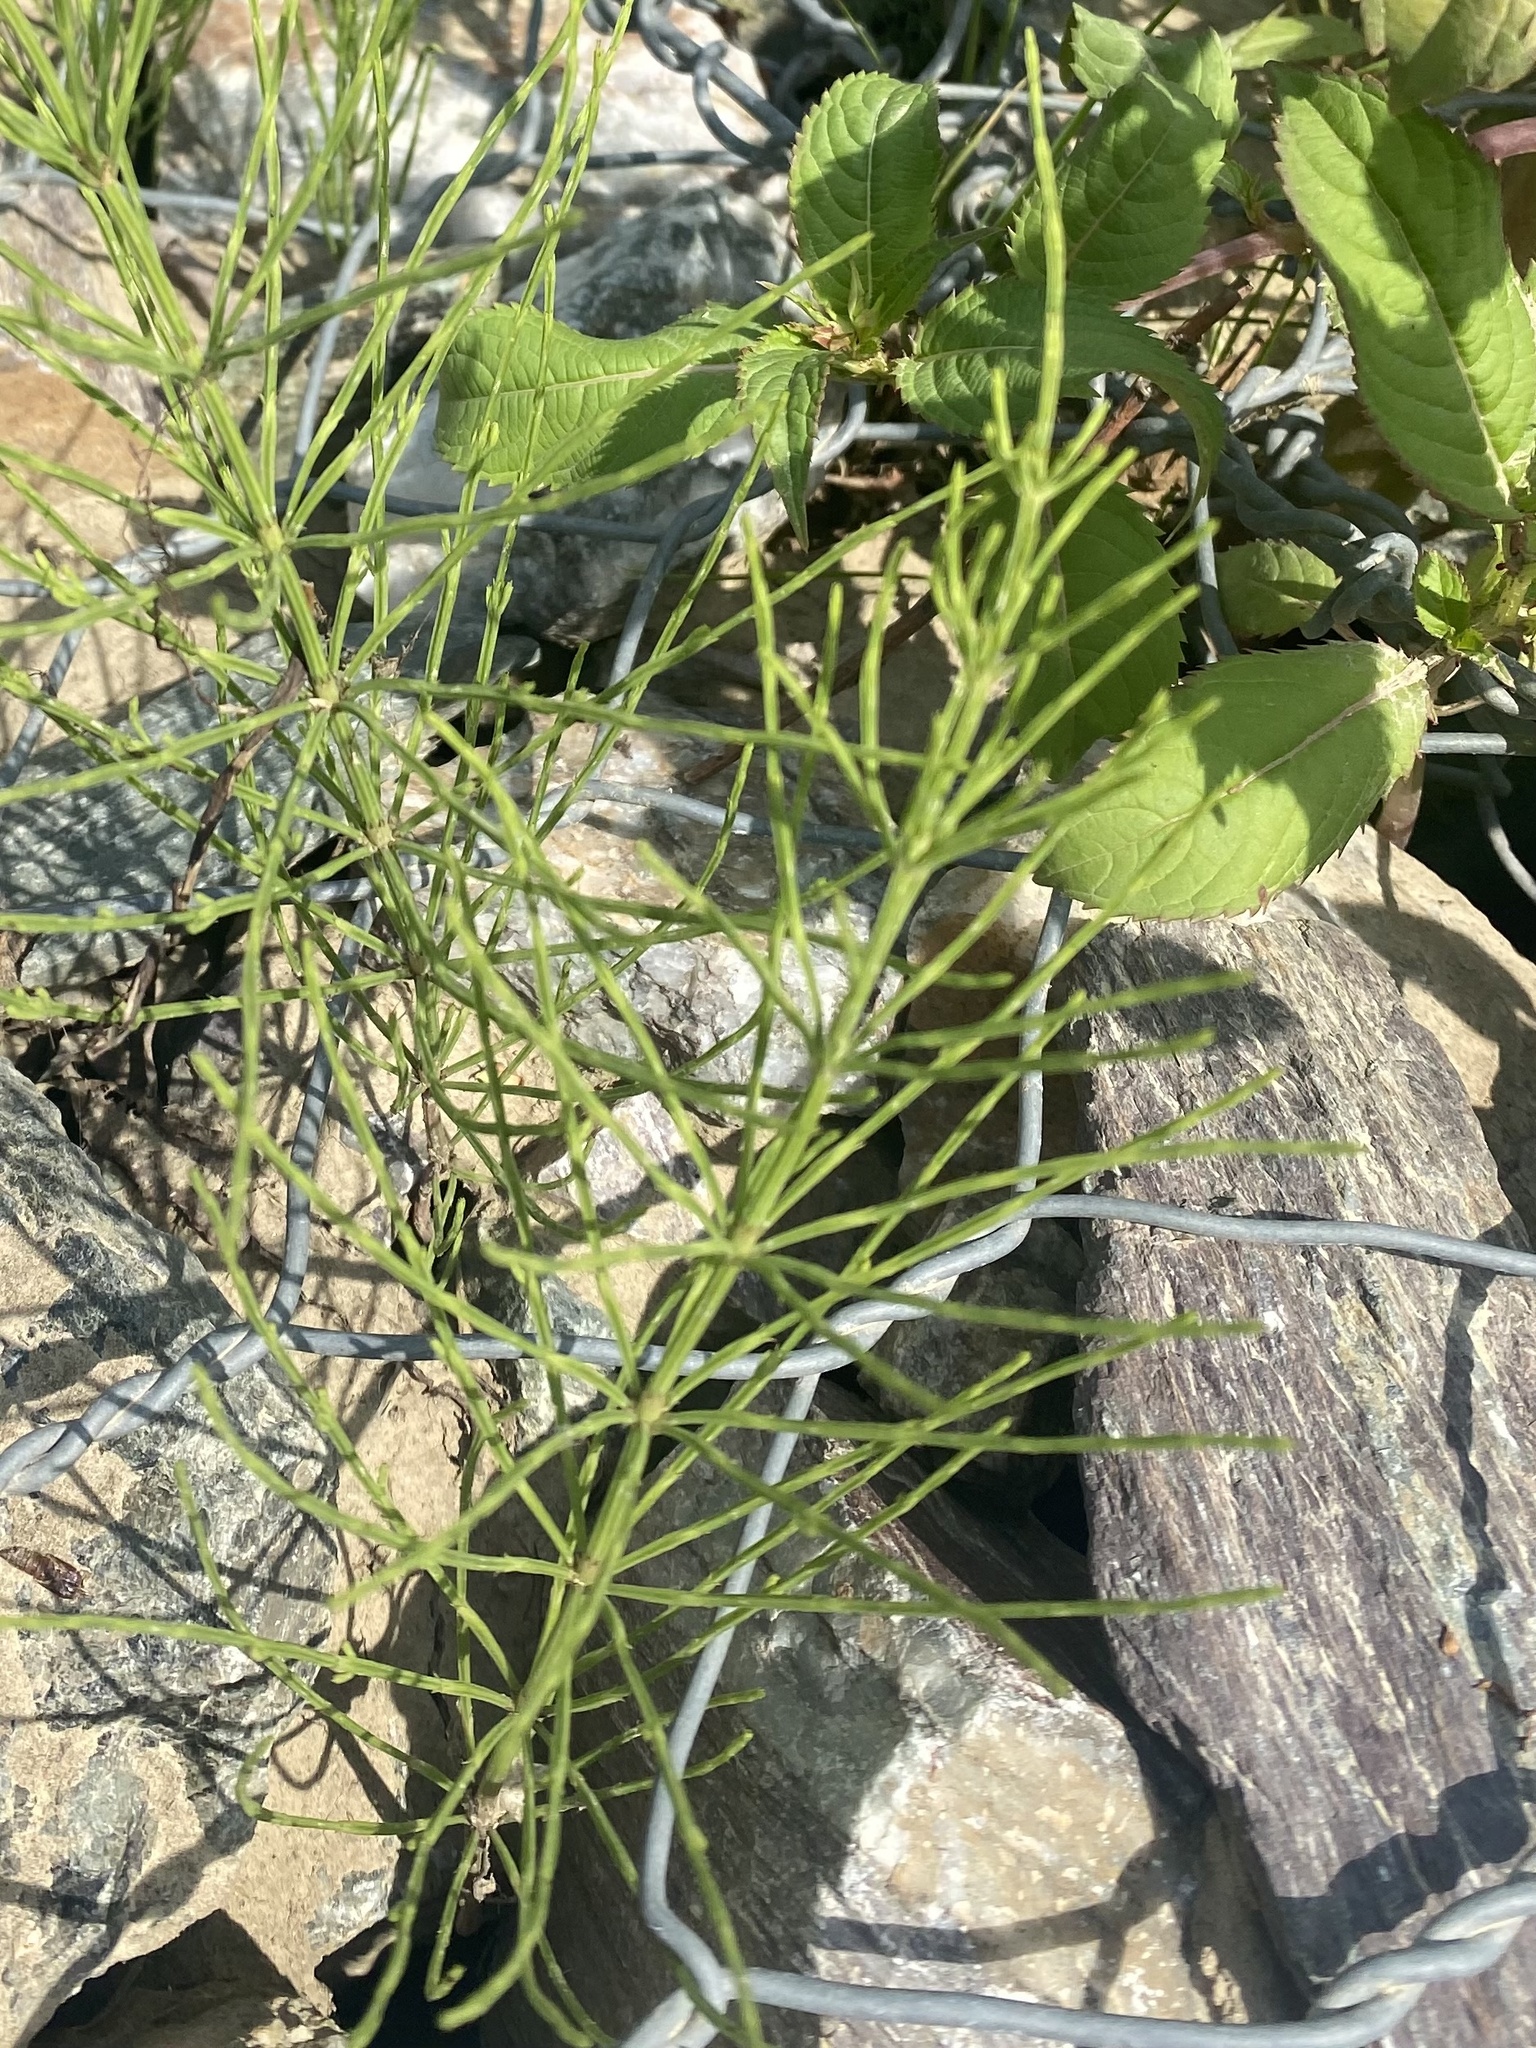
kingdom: Plantae
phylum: Tracheophyta
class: Polypodiopsida
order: Equisetales
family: Equisetaceae
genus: Equisetum
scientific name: Equisetum arvense
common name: Field horsetail
